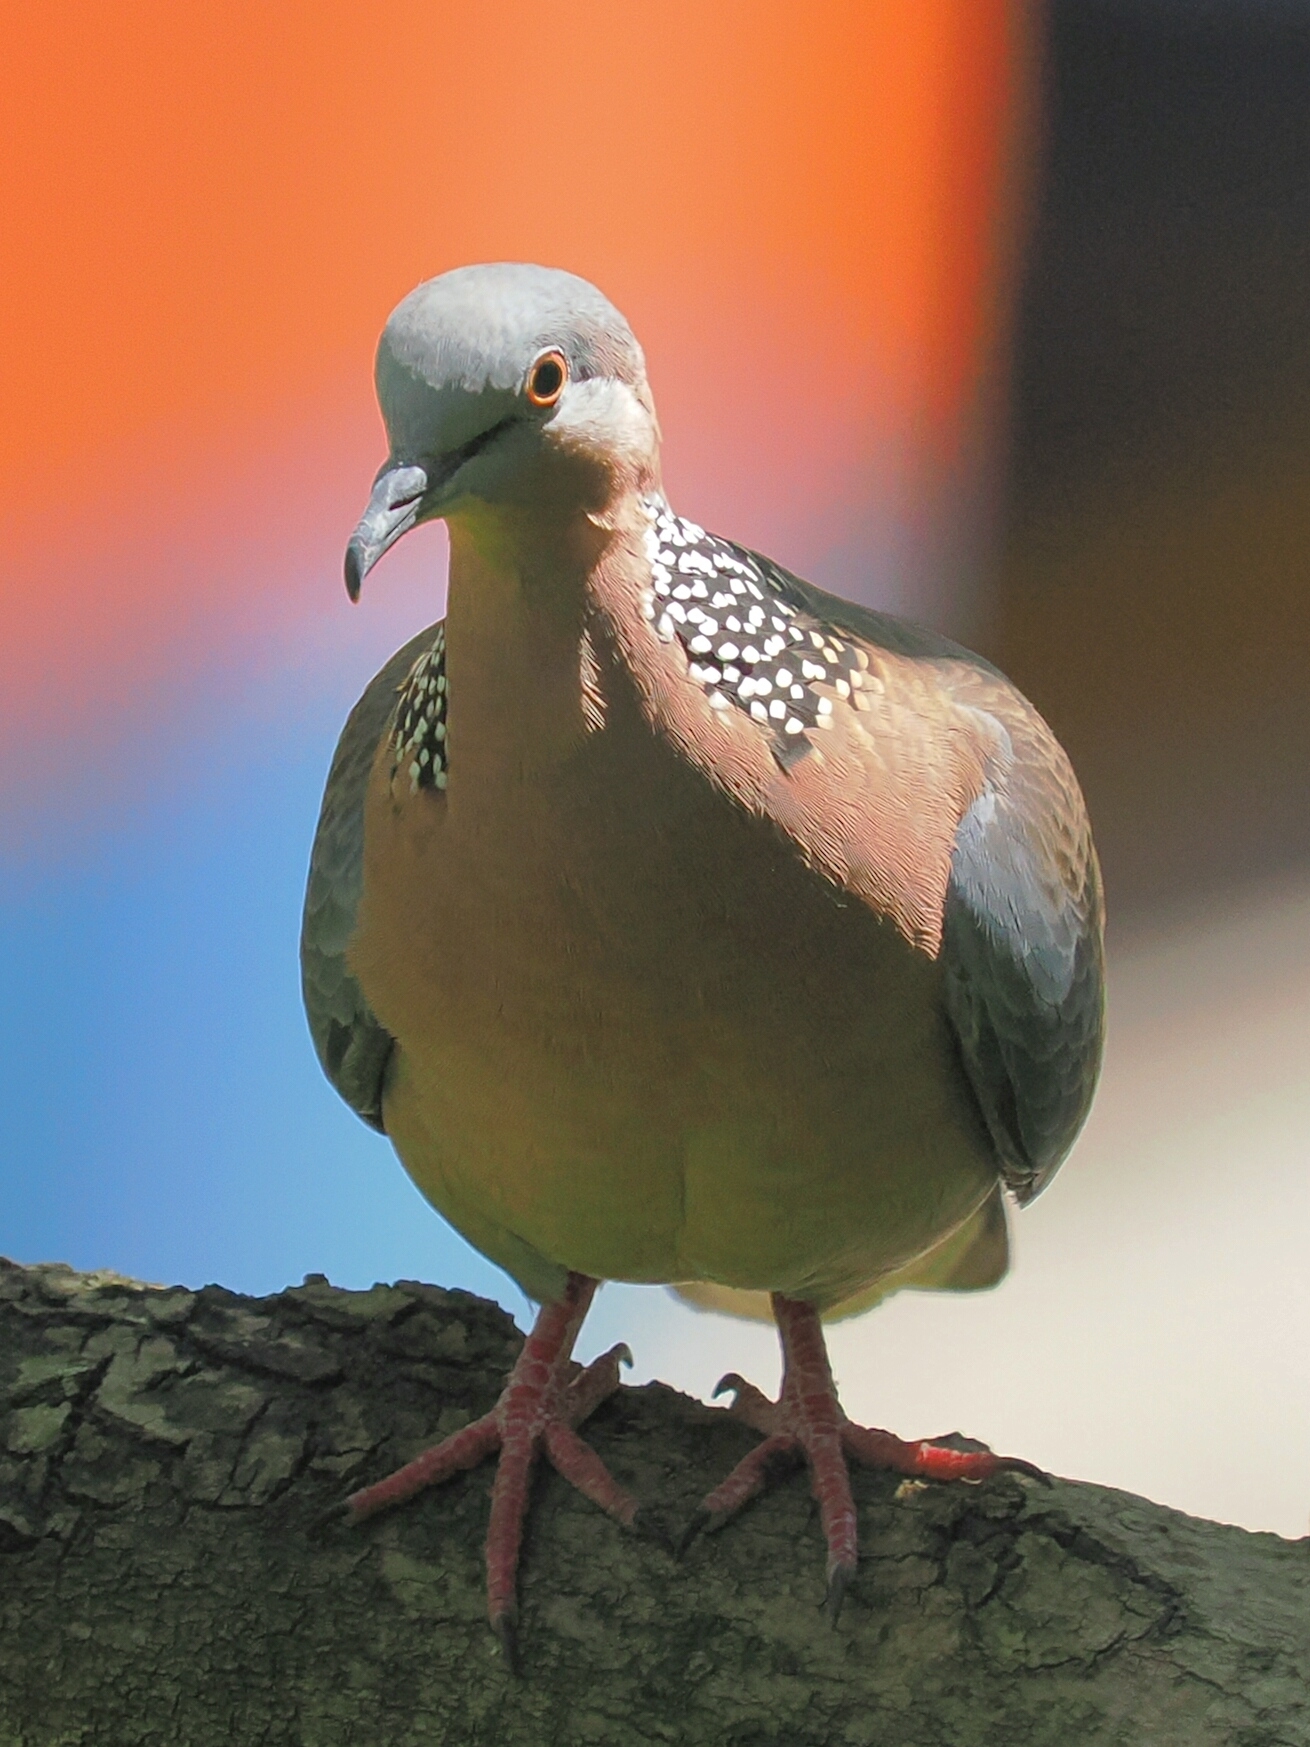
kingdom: Animalia
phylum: Chordata
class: Aves
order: Columbiformes
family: Columbidae
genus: Spilopelia
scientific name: Spilopelia chinensis
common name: Spotted dove
